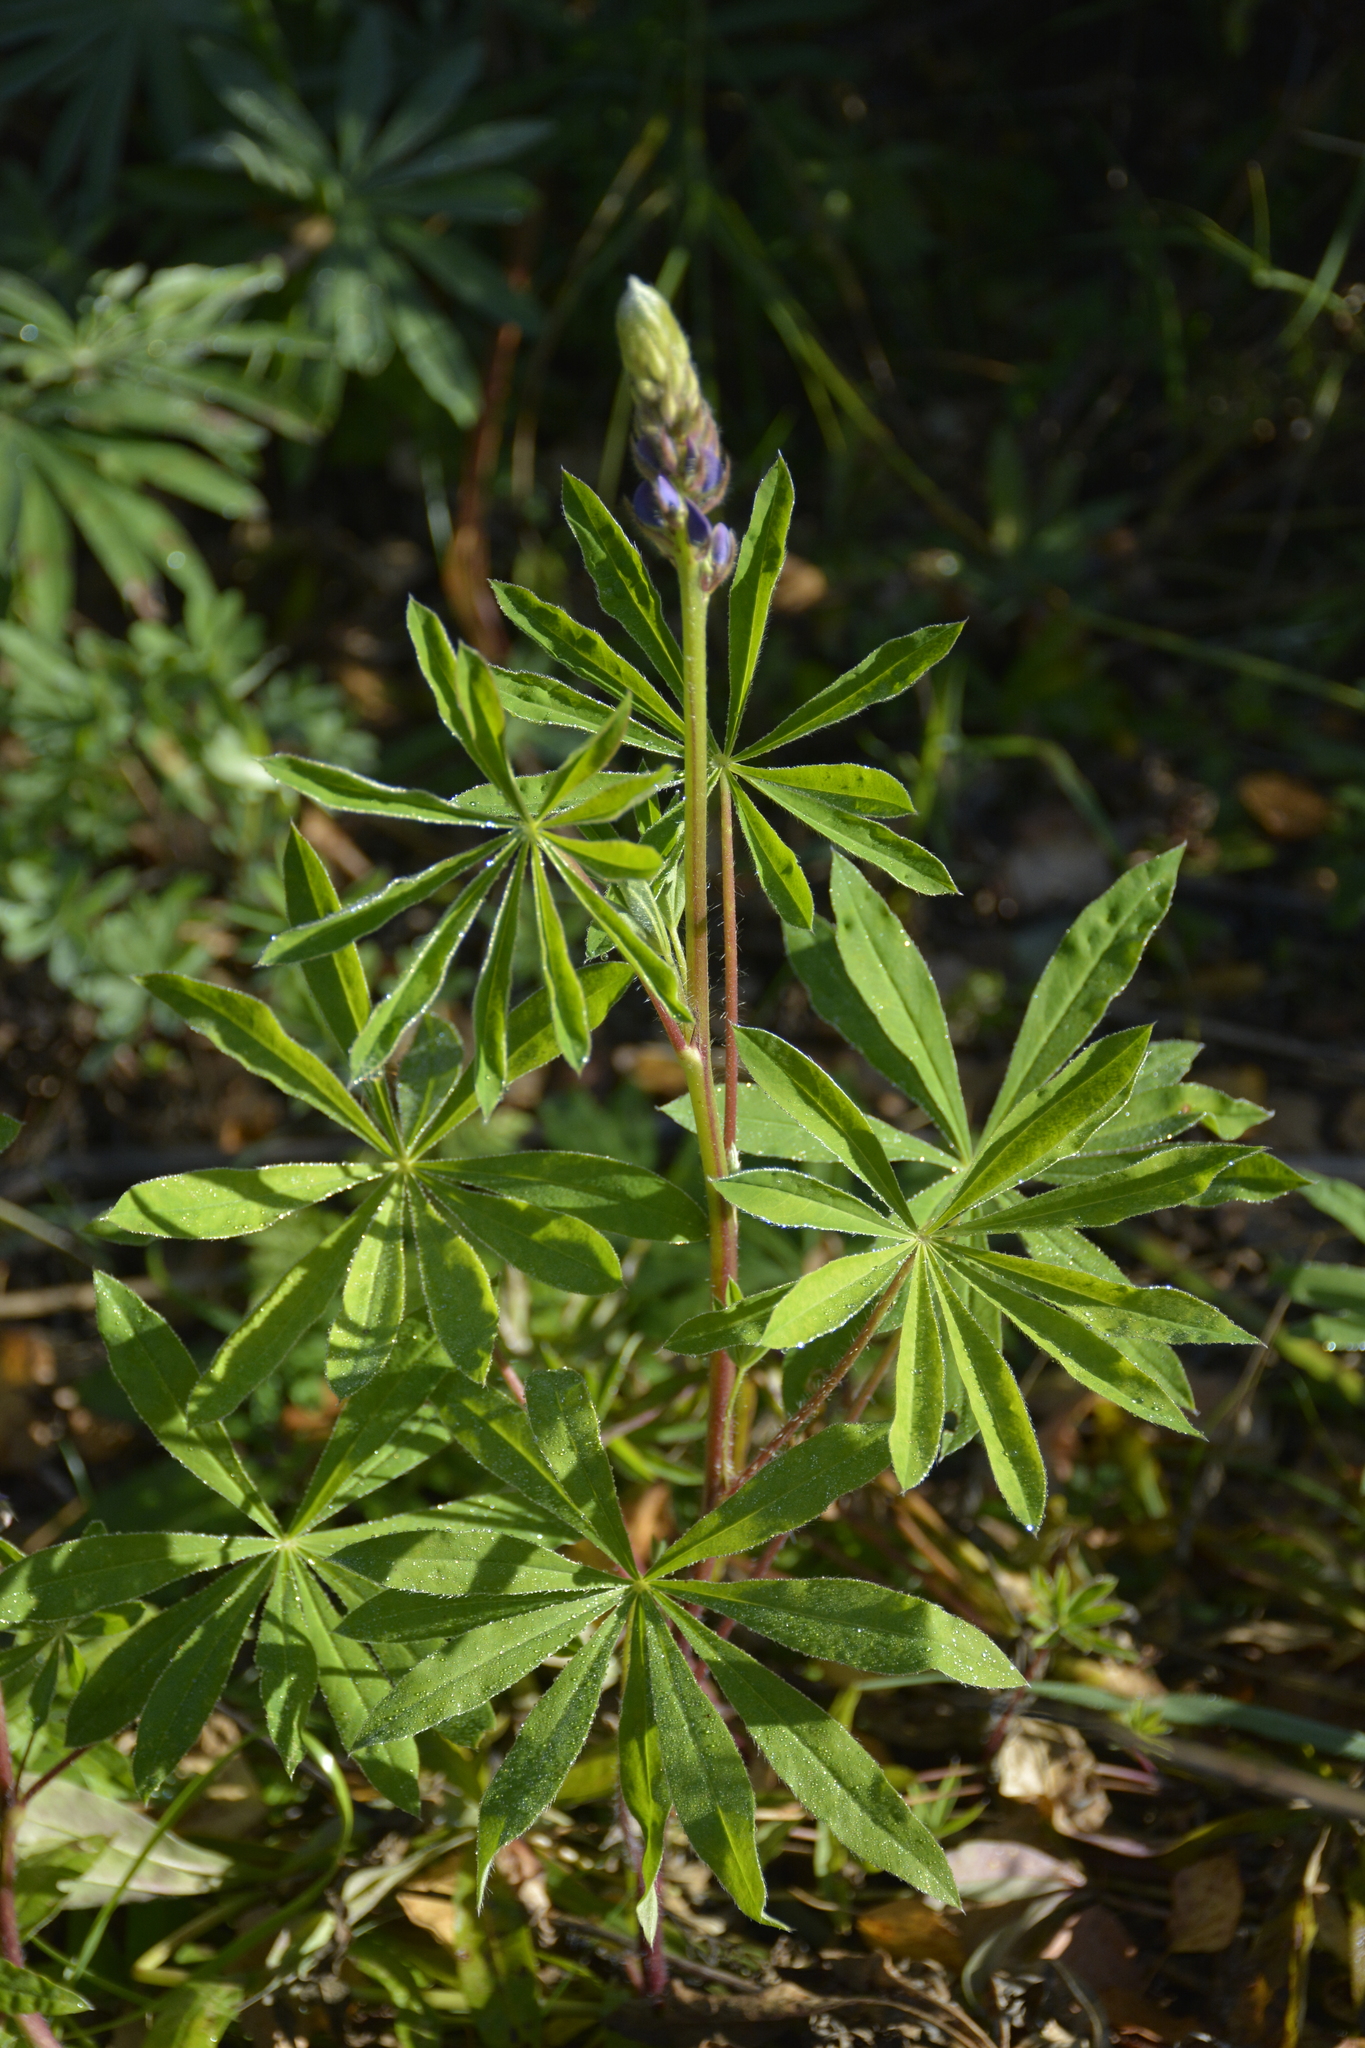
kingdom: Plantae
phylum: Tracheophyta
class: Magnoliopsida
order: Fabales
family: Fabaceae
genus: Lupinus
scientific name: Lupinus polyphyllus
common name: Garden lupin
